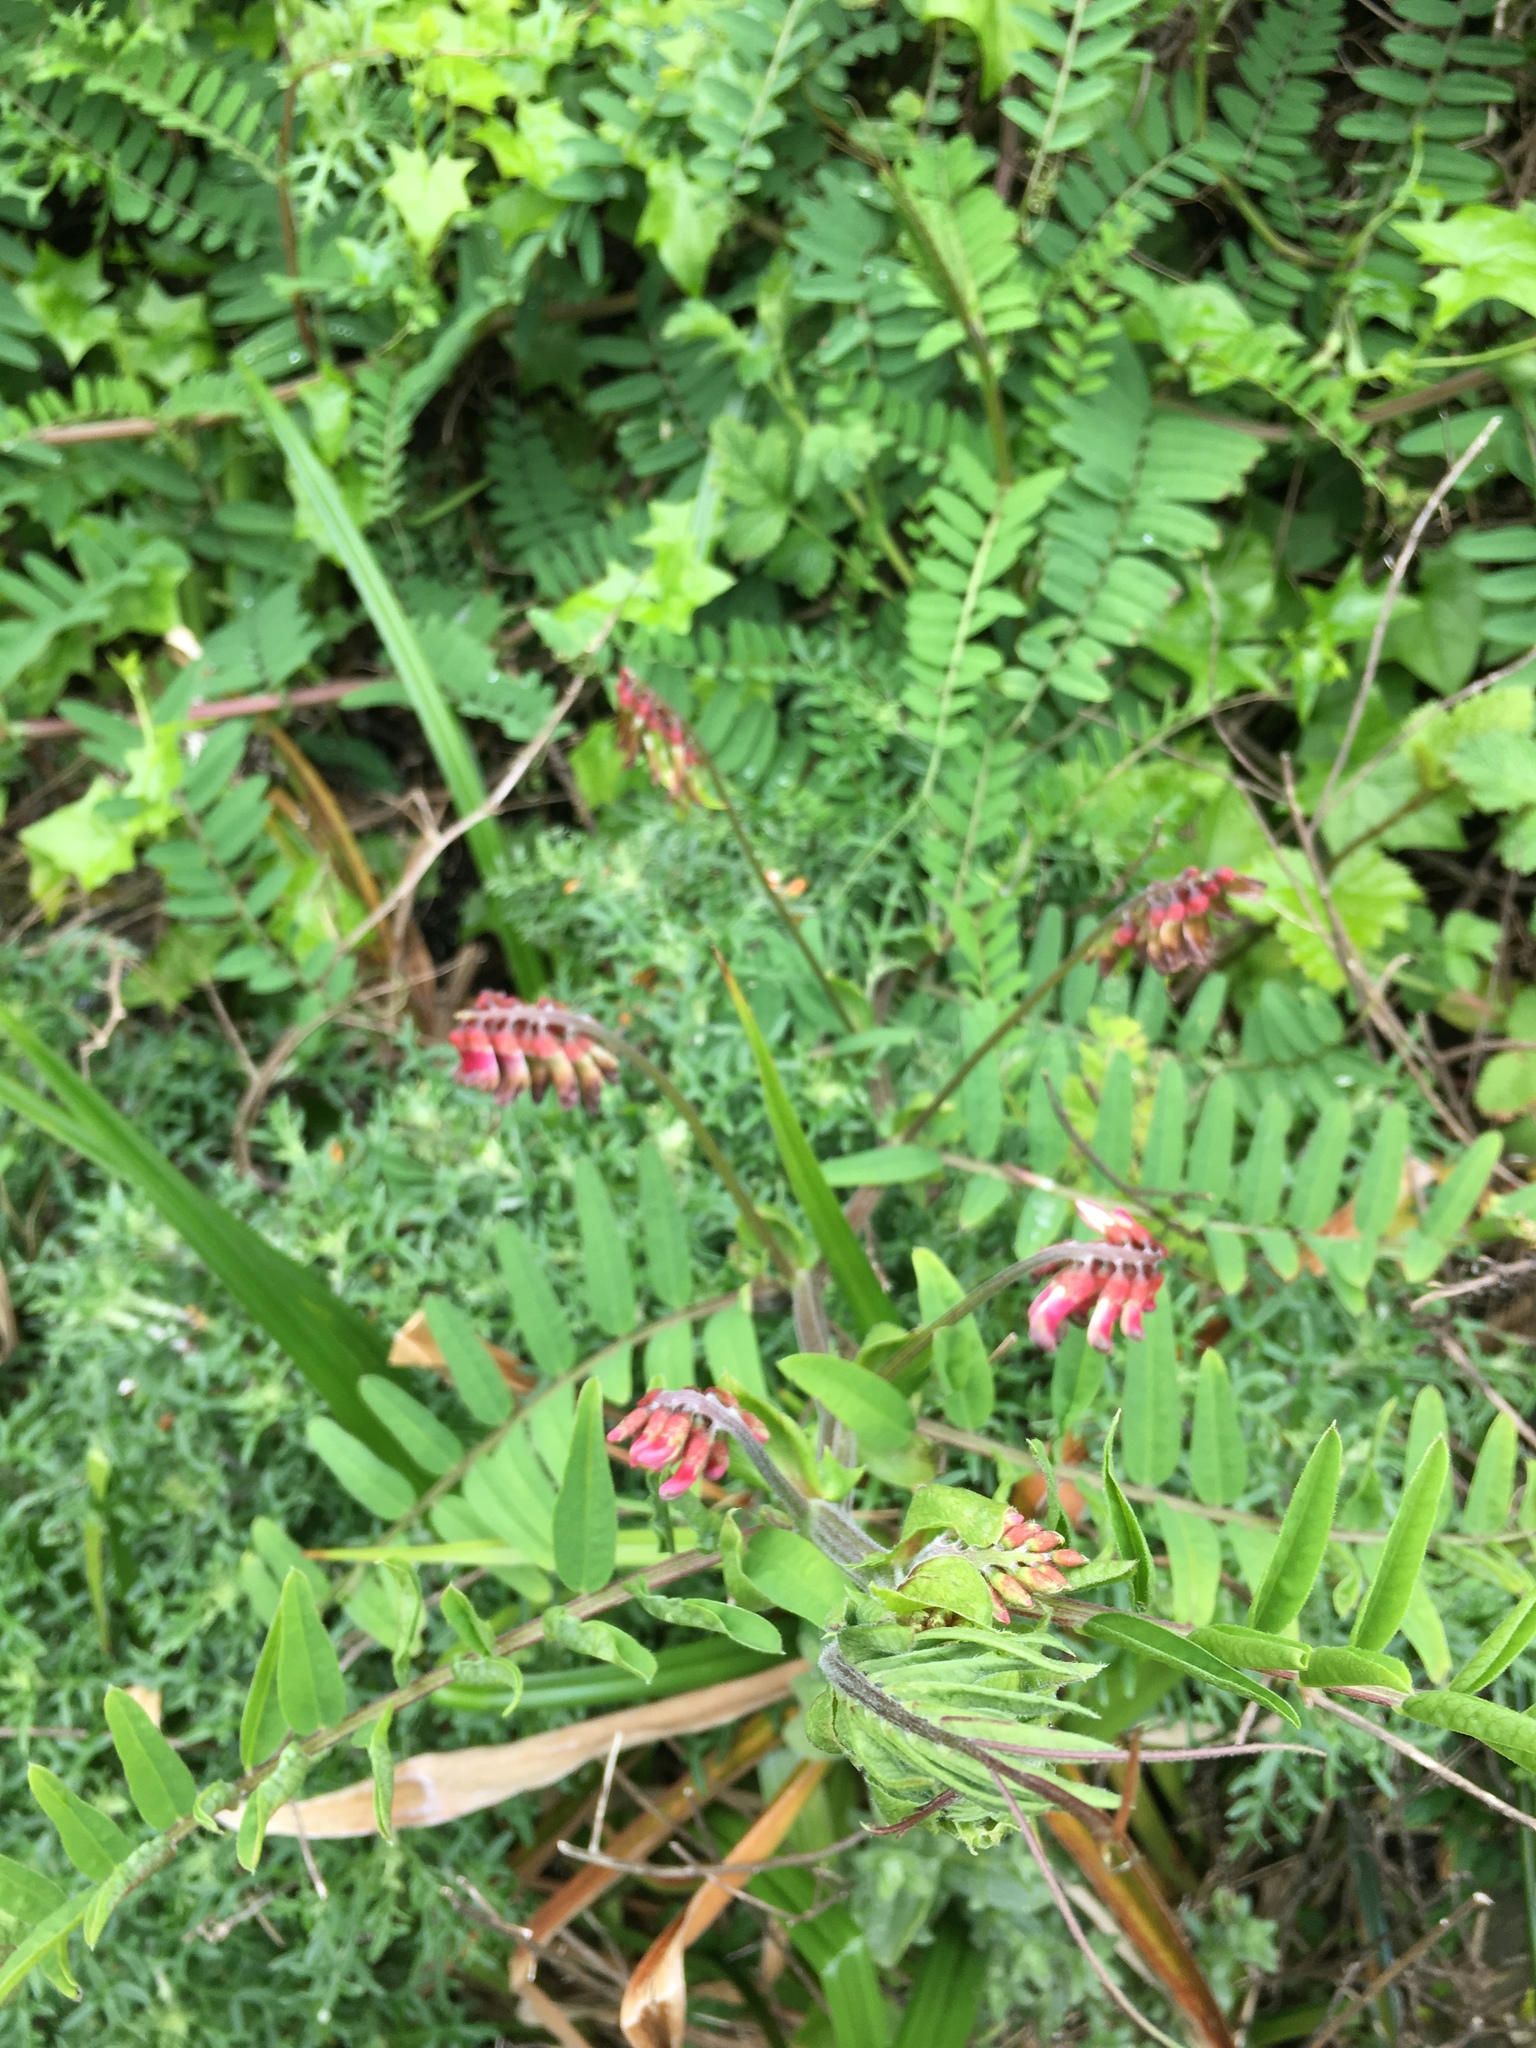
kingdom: Plantae
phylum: Tracheophyta
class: Magnoliopsida
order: Fabales
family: Fabaceae
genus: Vicia
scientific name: Vicia
